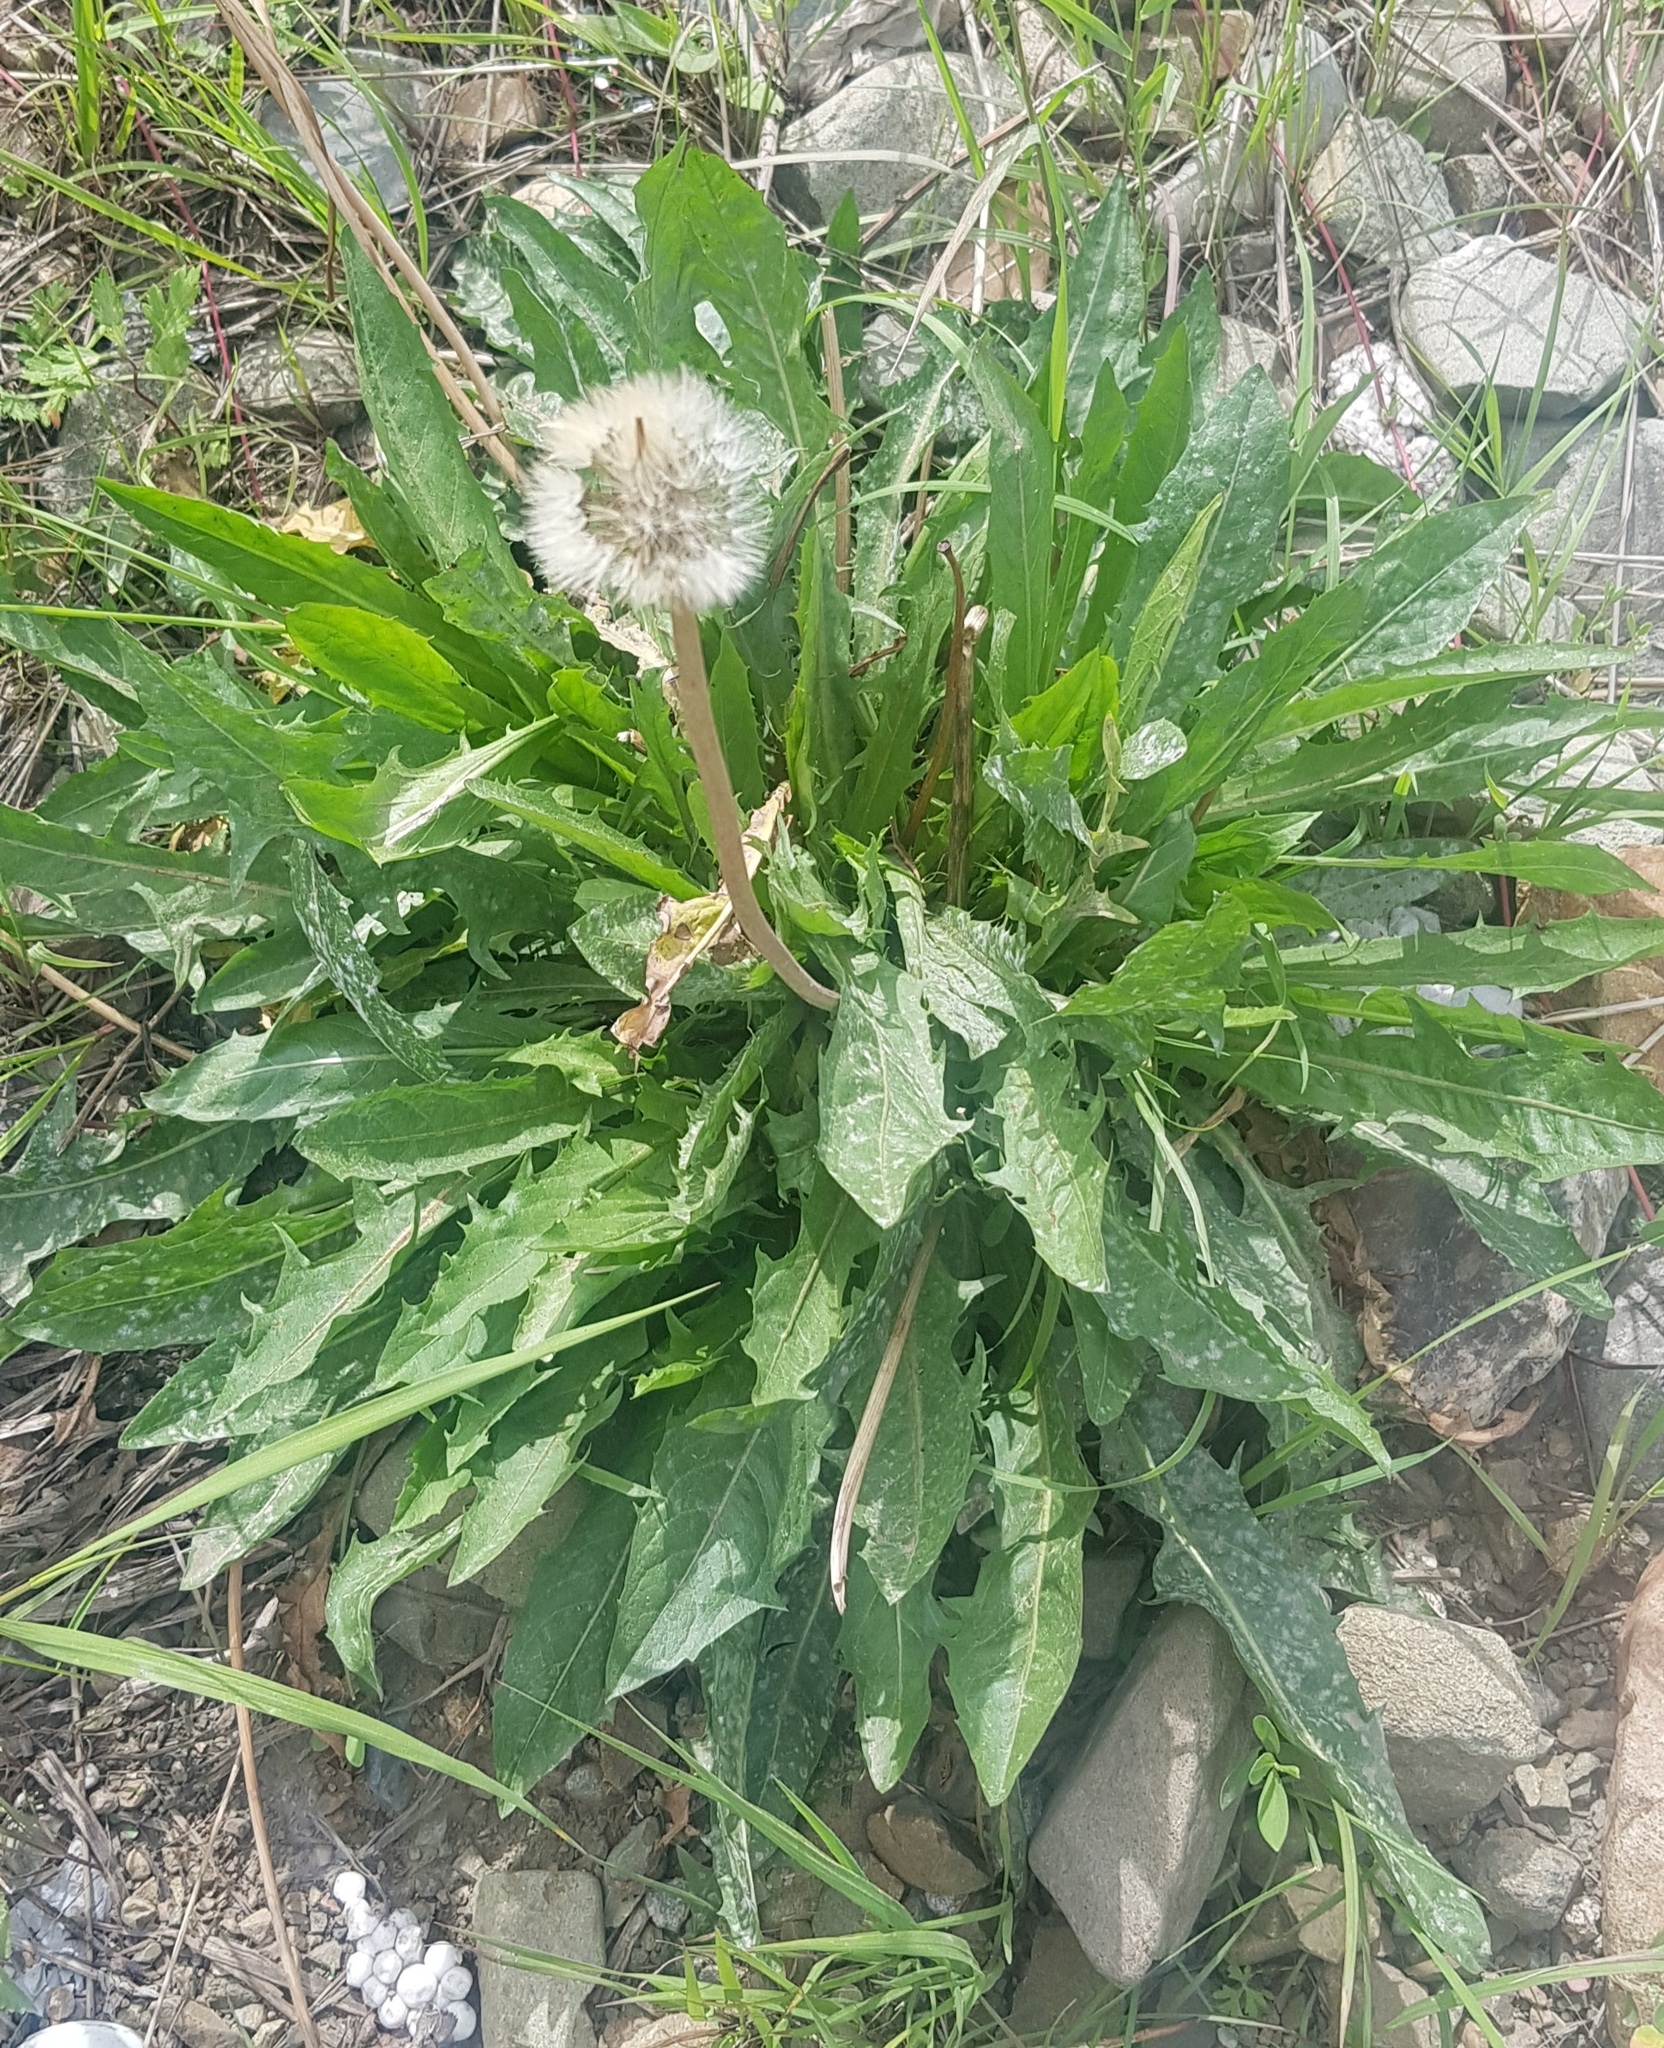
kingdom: Plantae
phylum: Tracheophyta
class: Magnoliopsida
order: Asterales
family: Asteraceae
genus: Taraxacum
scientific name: Taraxacum officinale
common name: Common dandelion
